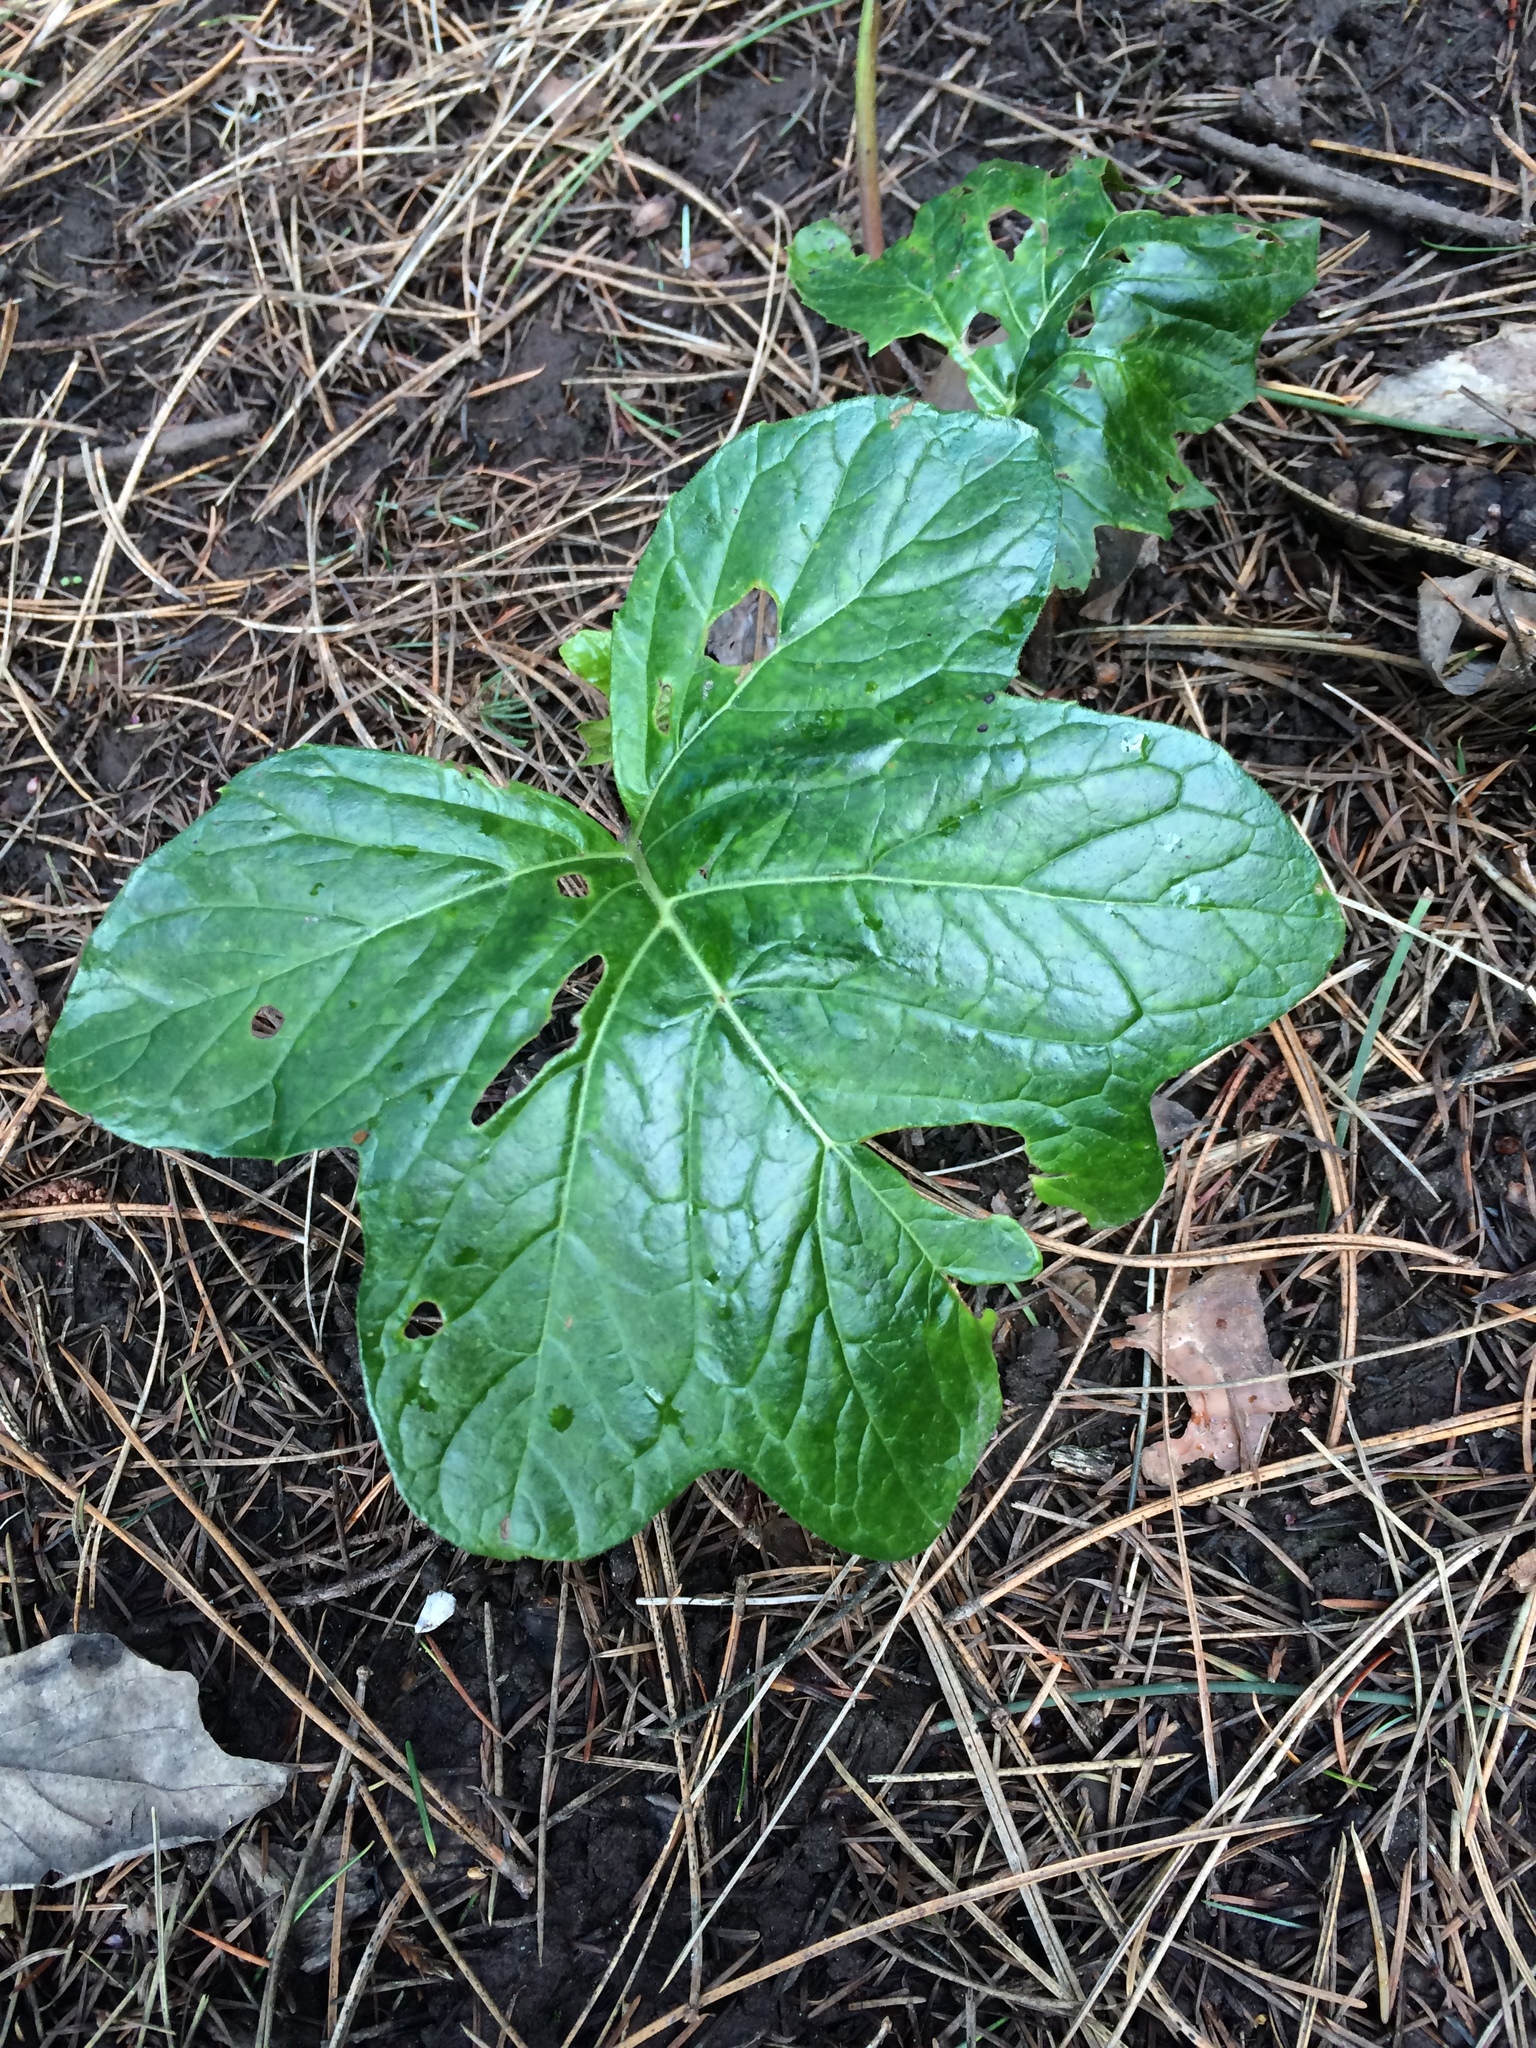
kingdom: Plantae
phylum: Tracheophyta
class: Magnoliopsida
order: Lamiales
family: Acanthaceae
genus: Acanthus
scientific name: Acanthus mollis
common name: Bear's-breech
